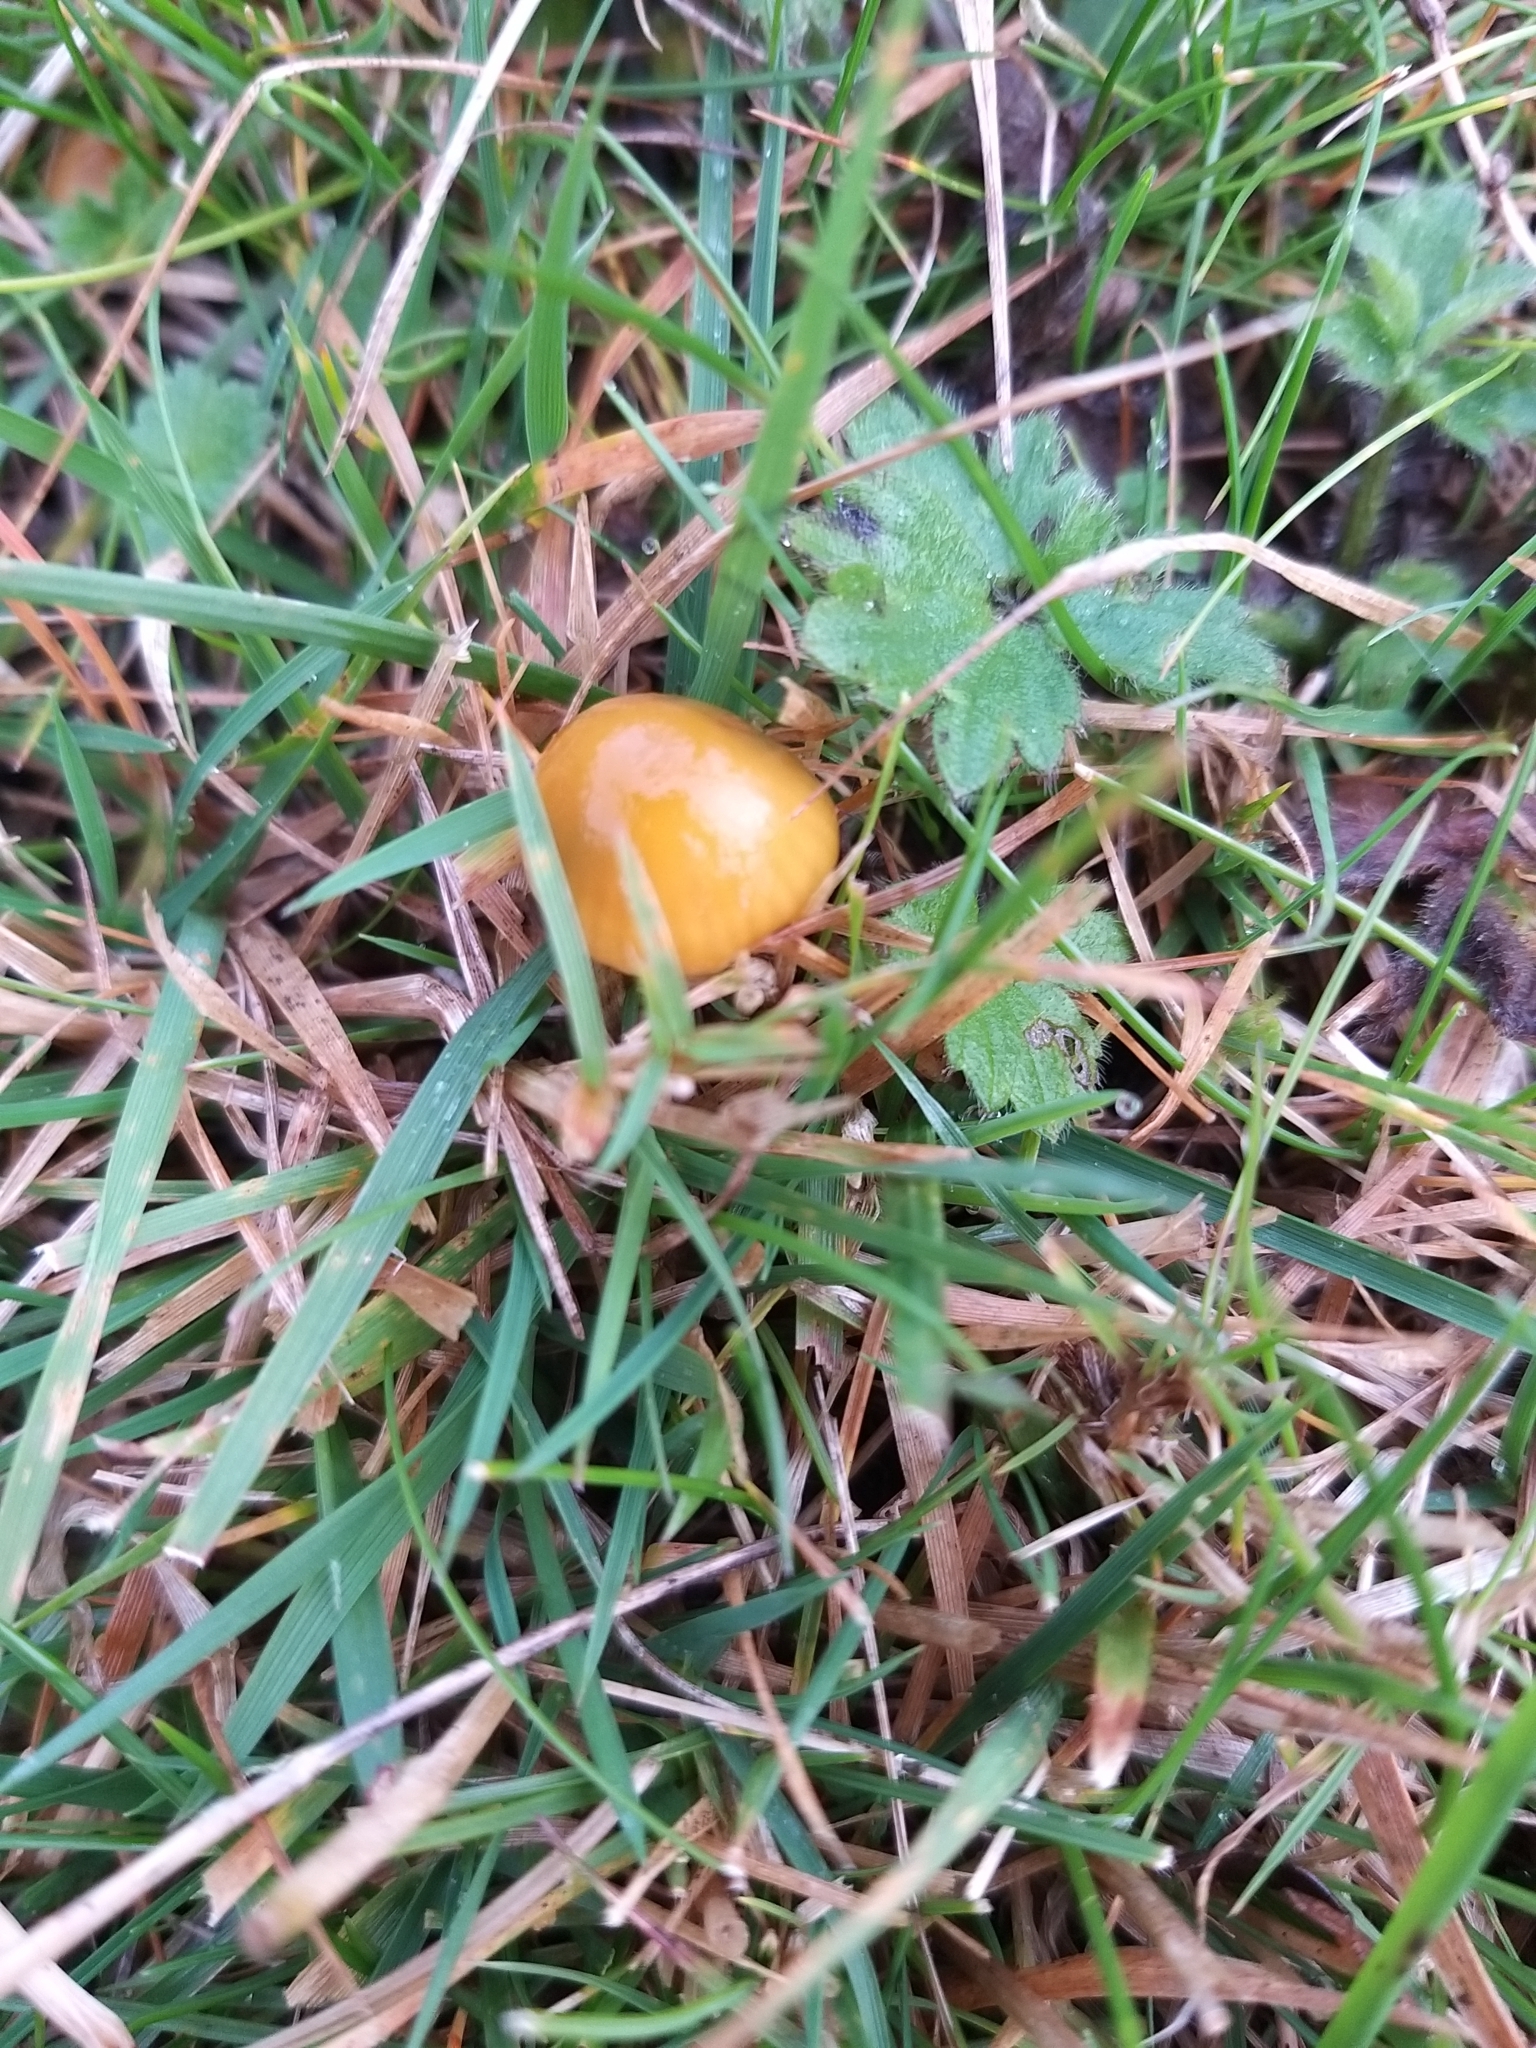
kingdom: Fungi
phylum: Basidiomycota
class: Agaricomycetes
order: Agaricales
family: Hygrophoraceae
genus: Gliophorus
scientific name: Gliophorus psittacinus
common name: Parrot wax-cap
